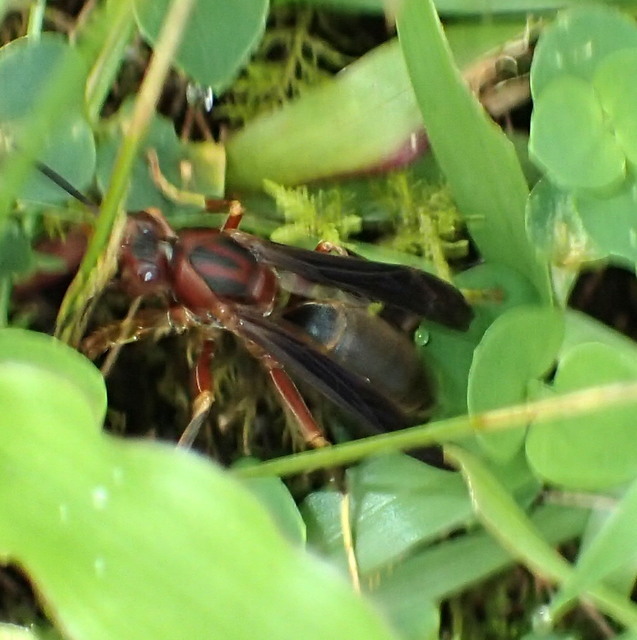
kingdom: Animalia
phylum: Arthropoda
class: Insecta
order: Hymenoptera
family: Eumenidae
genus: Polistes
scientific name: Polistes metricus
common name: Metric paper wasp
